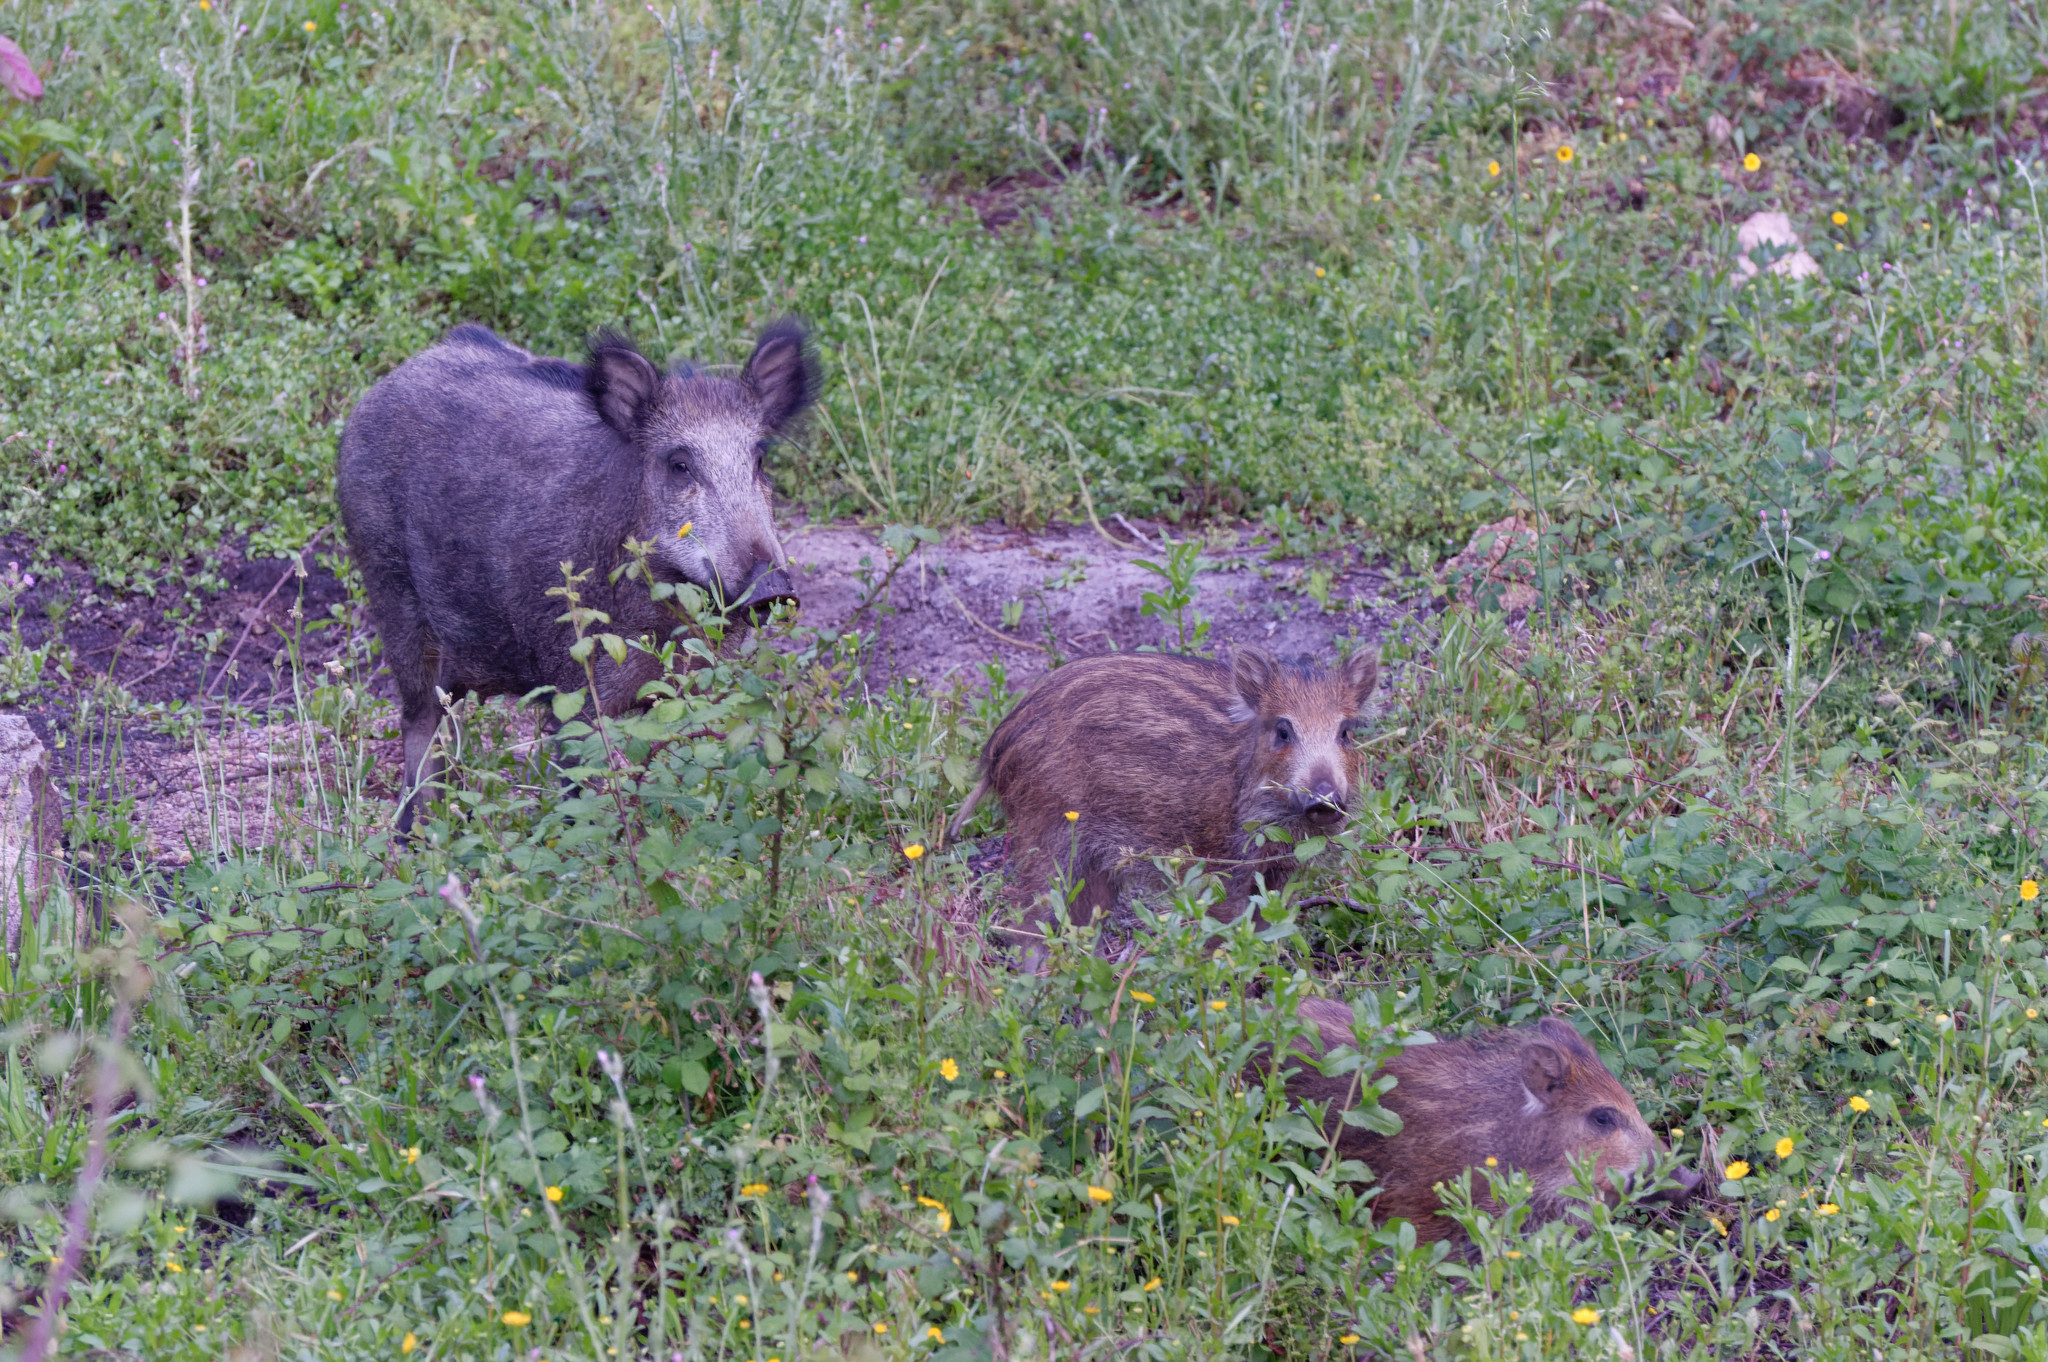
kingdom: Animalia
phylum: Chordata
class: Mammalia
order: Artiodactyla
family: Suidae
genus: Sus
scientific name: Sus scrofa
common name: Wild boar
